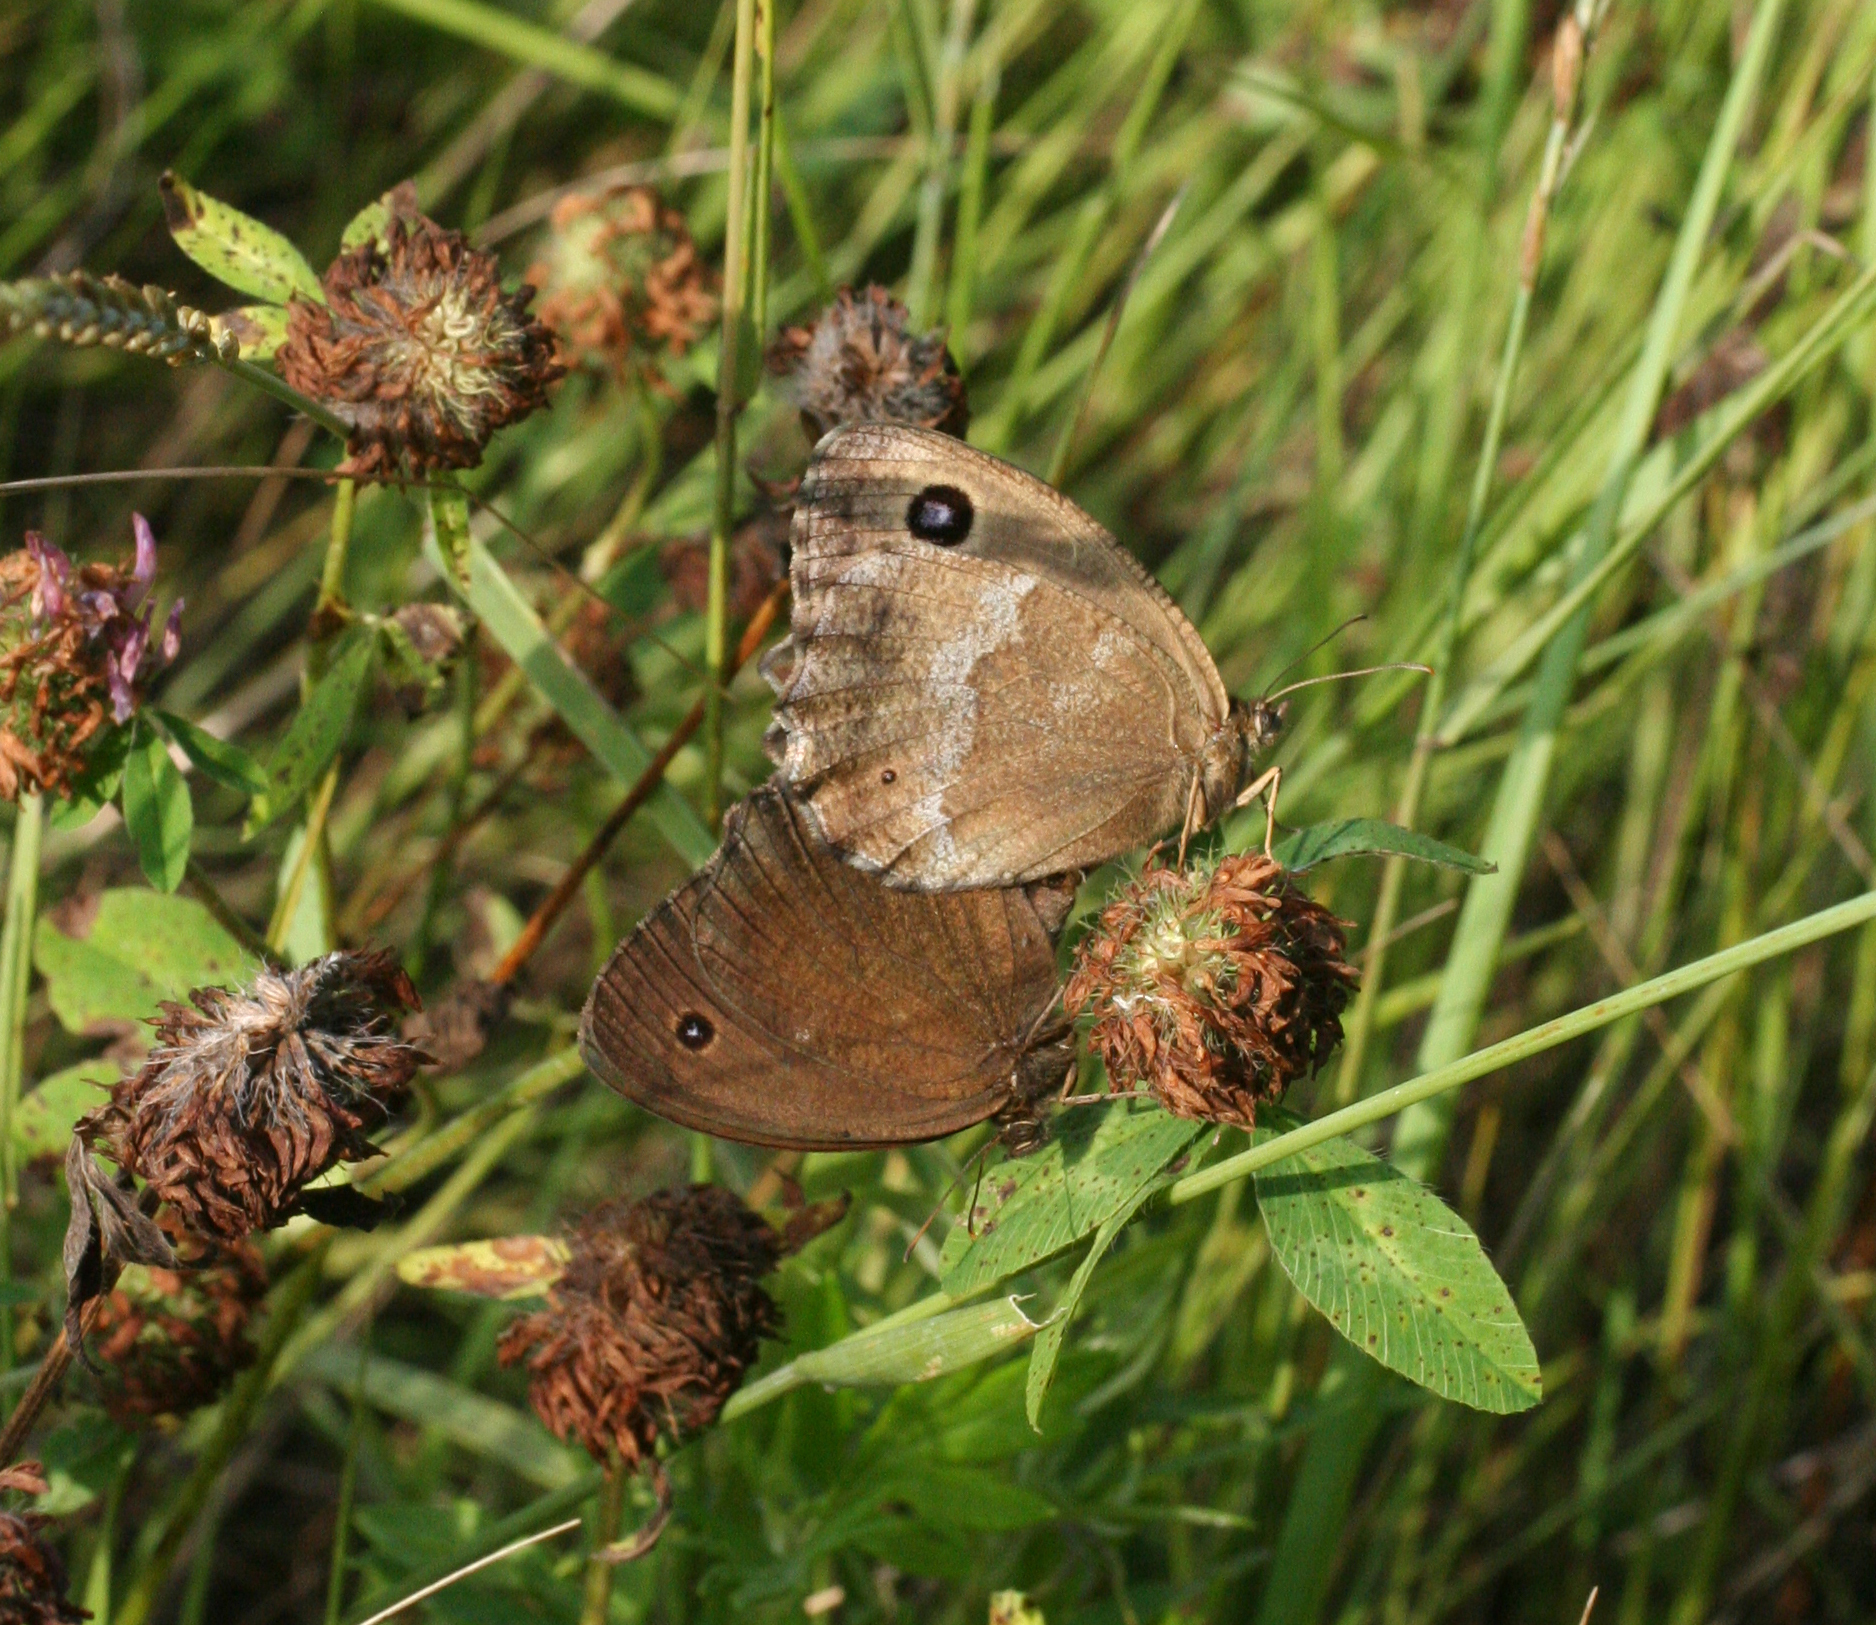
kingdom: Animalia
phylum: Arthropoda
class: Insecta
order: Lepidoptera
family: Nymphalidae
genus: Minois
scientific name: Minois dryas
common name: Dryad
